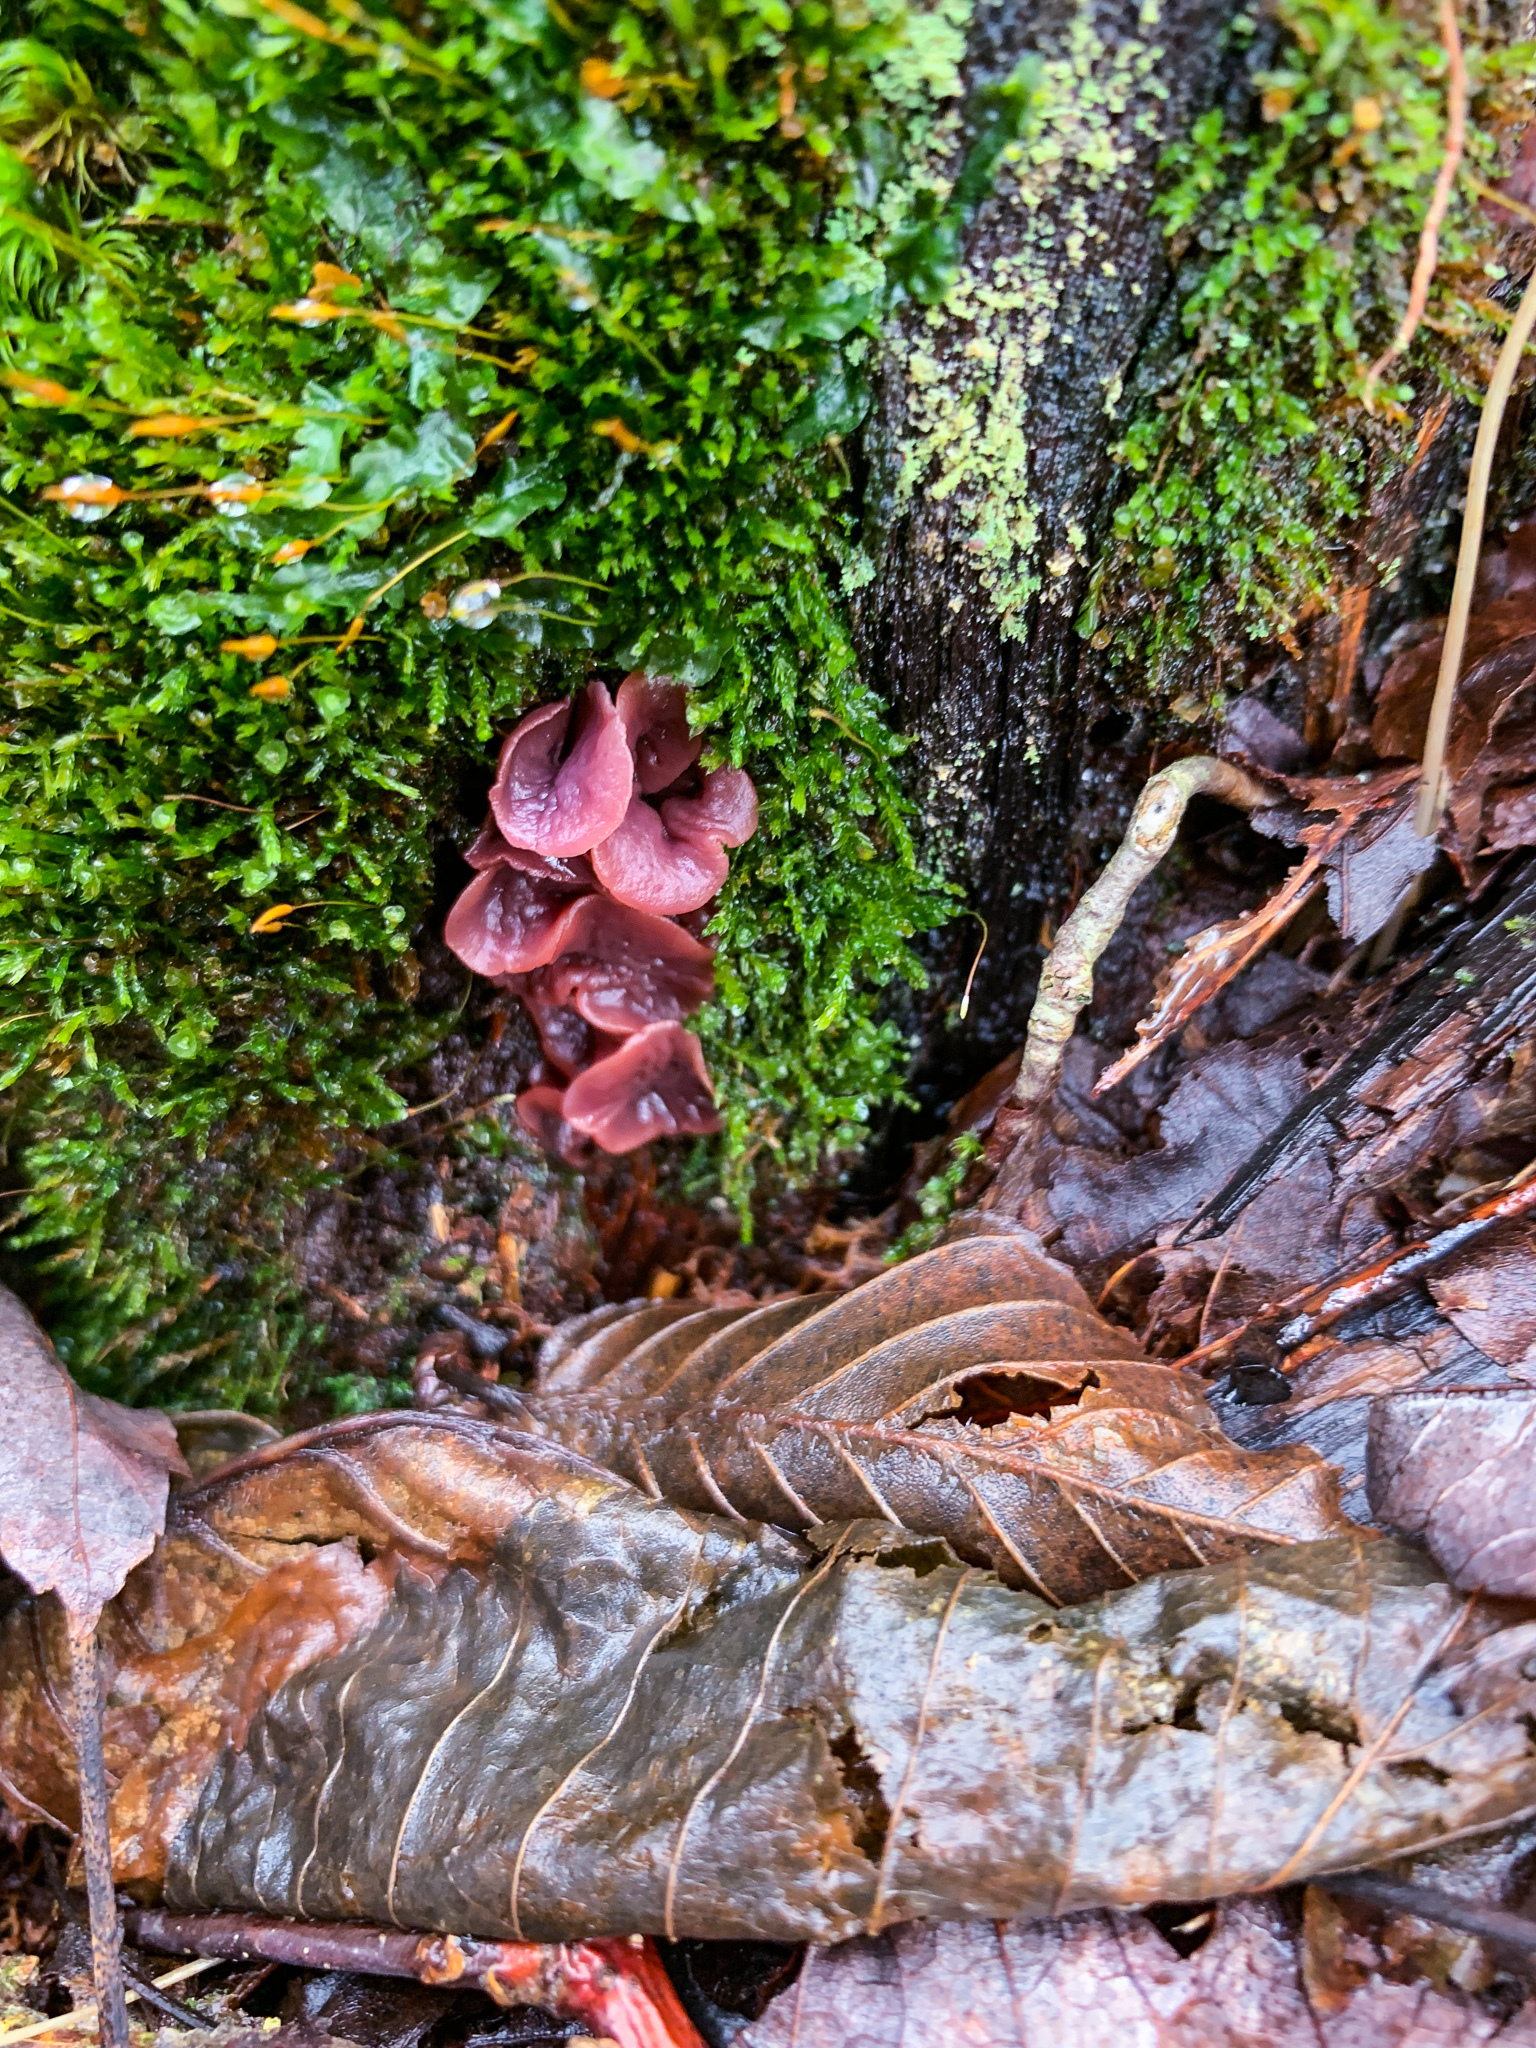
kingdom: Fungi
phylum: Ascomycota
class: Leotiomycetes
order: Helotiales
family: Gelatinodiscaceae
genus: Ascocoryne
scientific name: Ascocoryne sarcoides
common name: Purple jellydisc
